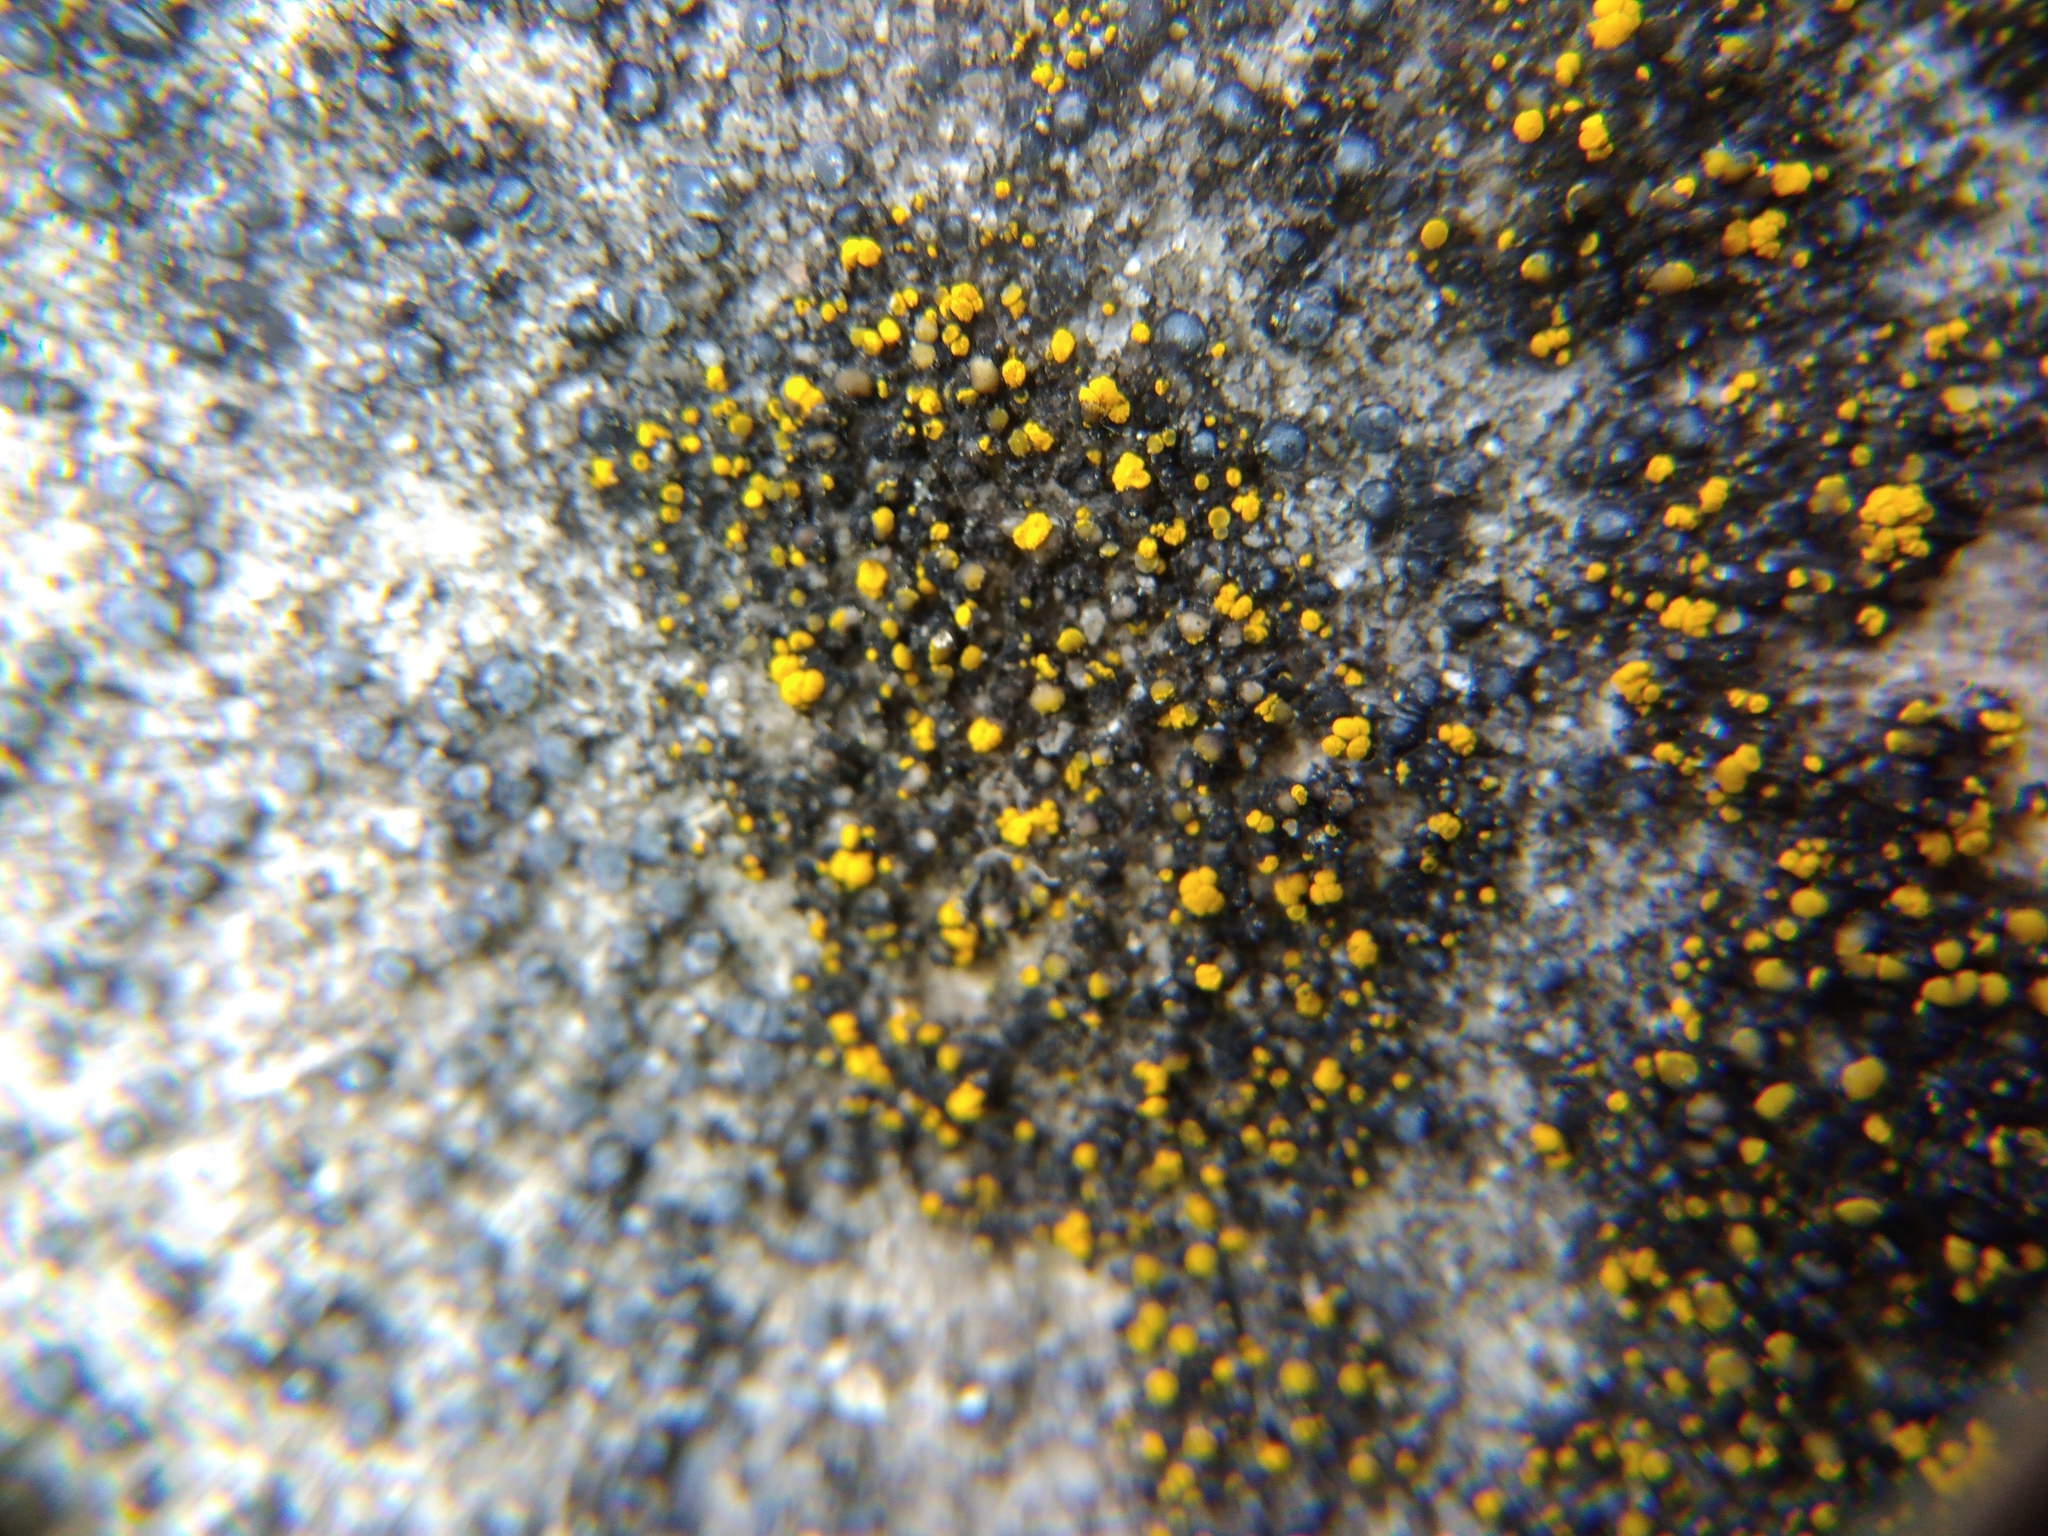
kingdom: Fungi
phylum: Ascomycota
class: Candelariomycetes
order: Candelariales
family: Candelariaceae
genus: Candelariella
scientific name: Candelariella aurella
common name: Hidden goldspeck lichen
